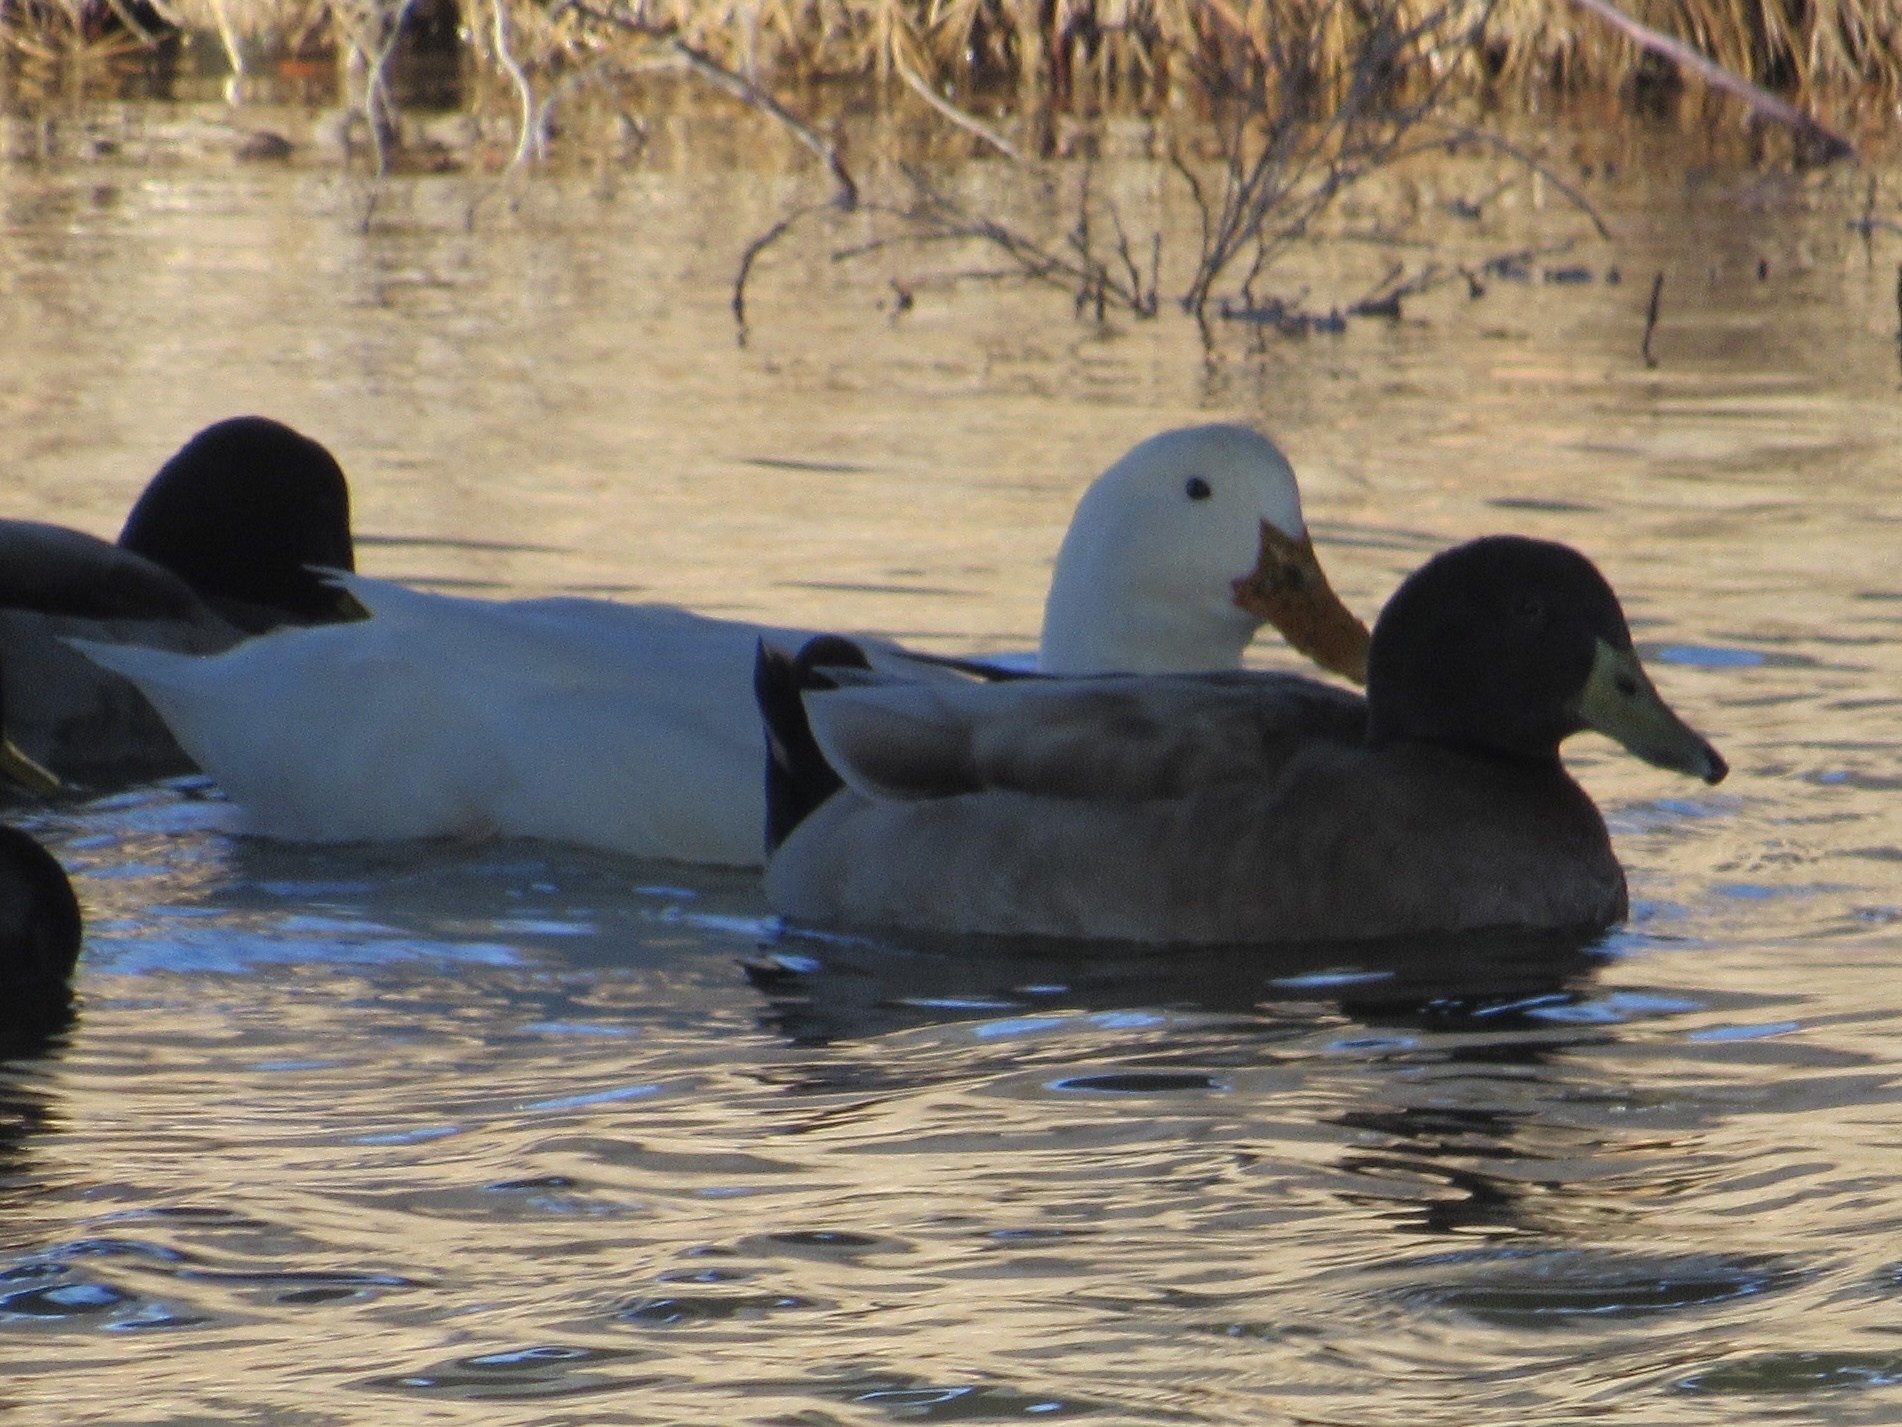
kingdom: Animalia
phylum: Chordata
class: Aves
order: Anseriformes
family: Anatidae
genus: Anas
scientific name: Anas platyrhynchos
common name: Mallard
